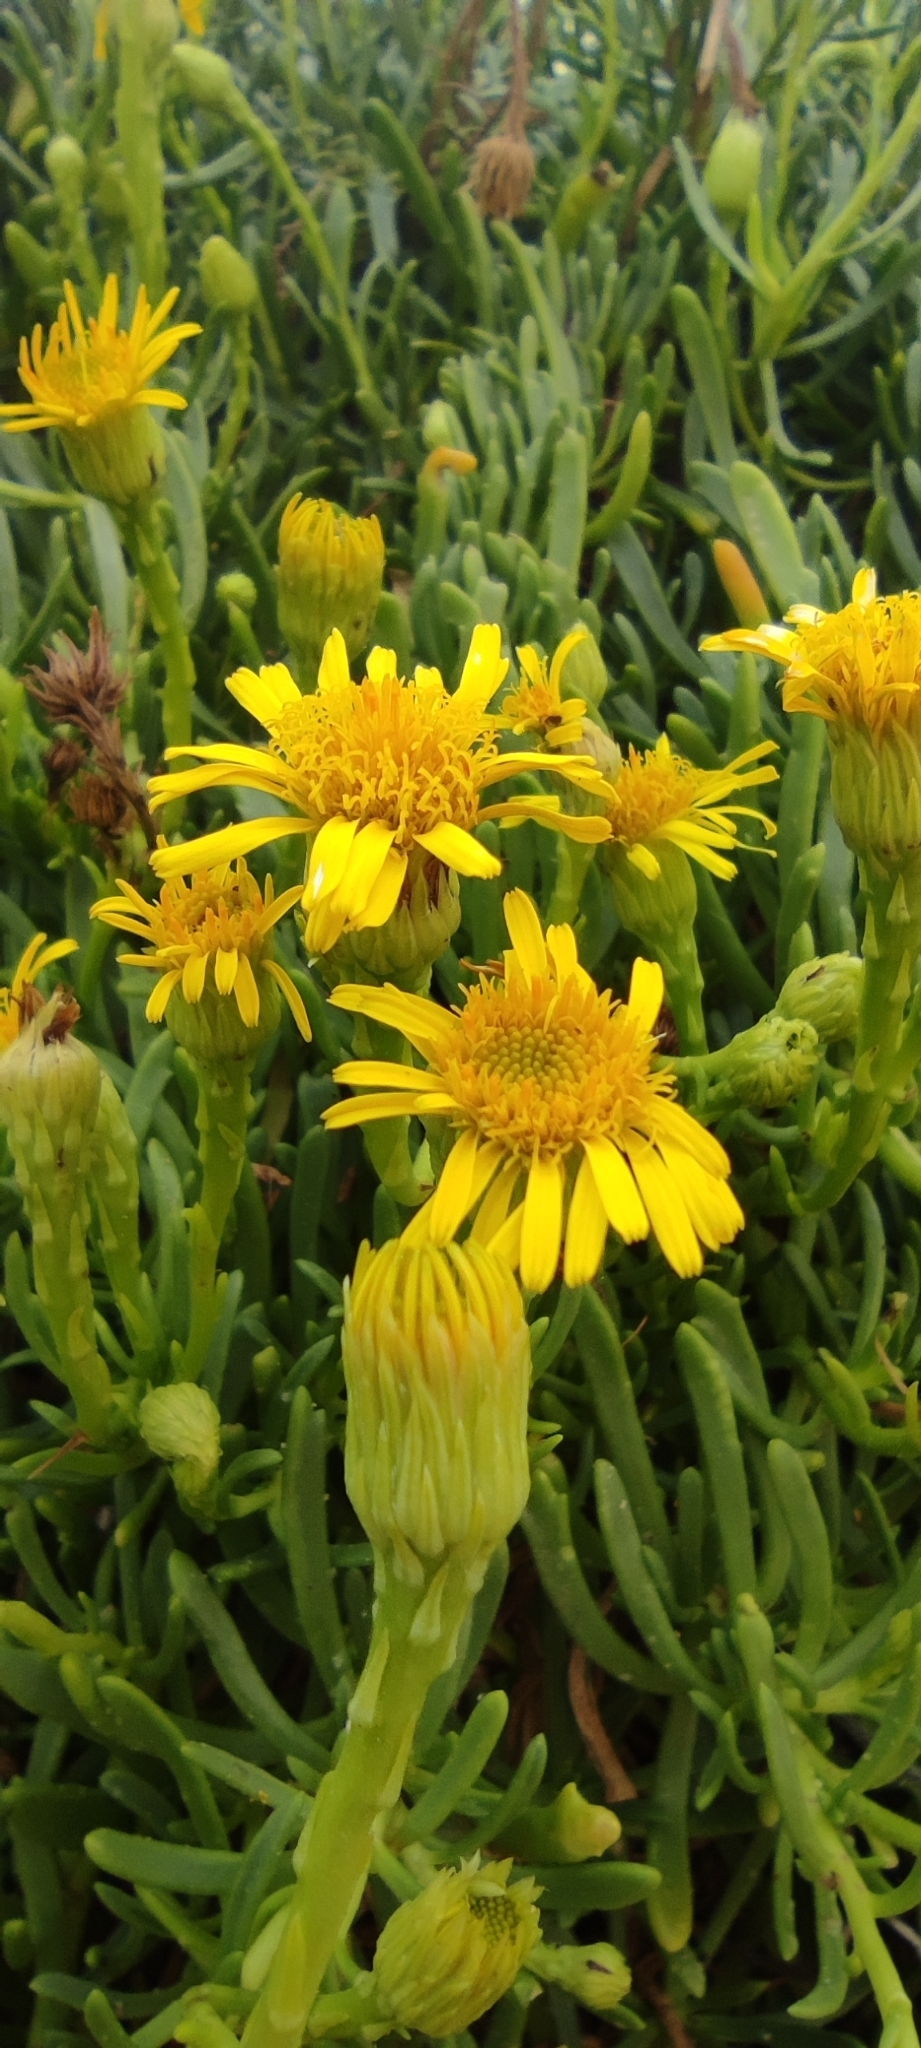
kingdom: Plantae
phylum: Tracheophyta
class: Magnoliopsida
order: Asterales
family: Asteraceae
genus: Limbarda
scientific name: Limbarda crithmoides
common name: Golden samphire
